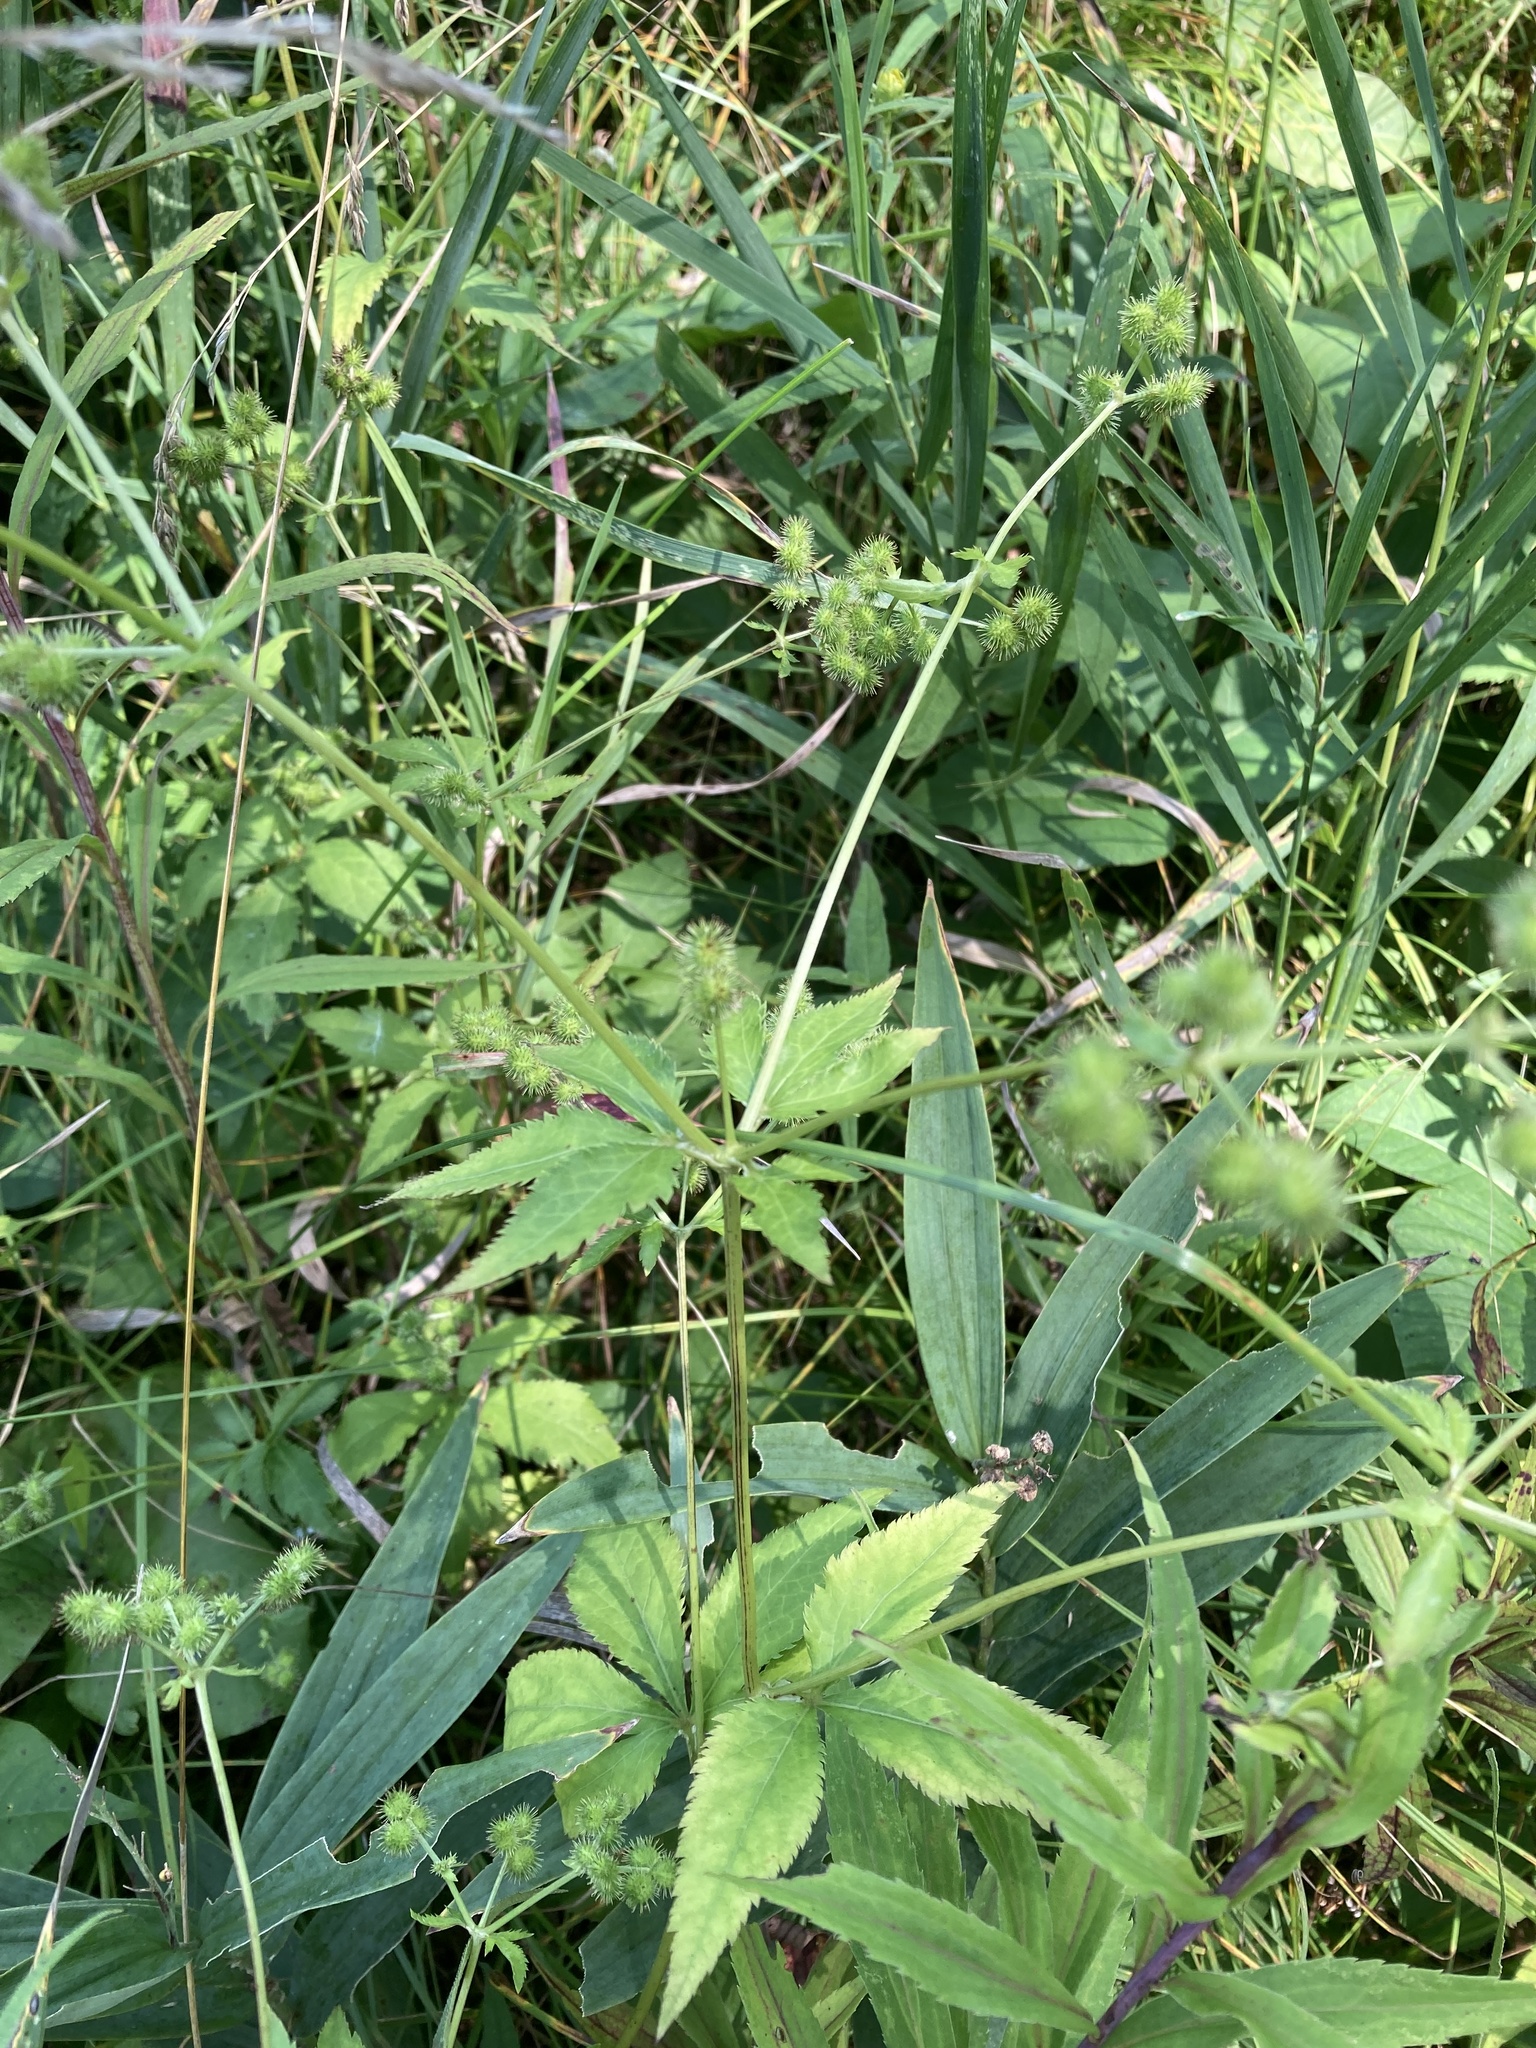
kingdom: Plantae
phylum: Tracheophyta
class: Magnoliopsida
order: Apiales
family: Apiaceae
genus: Sanicula
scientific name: Sanicula canadensis
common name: Canada sanicle
